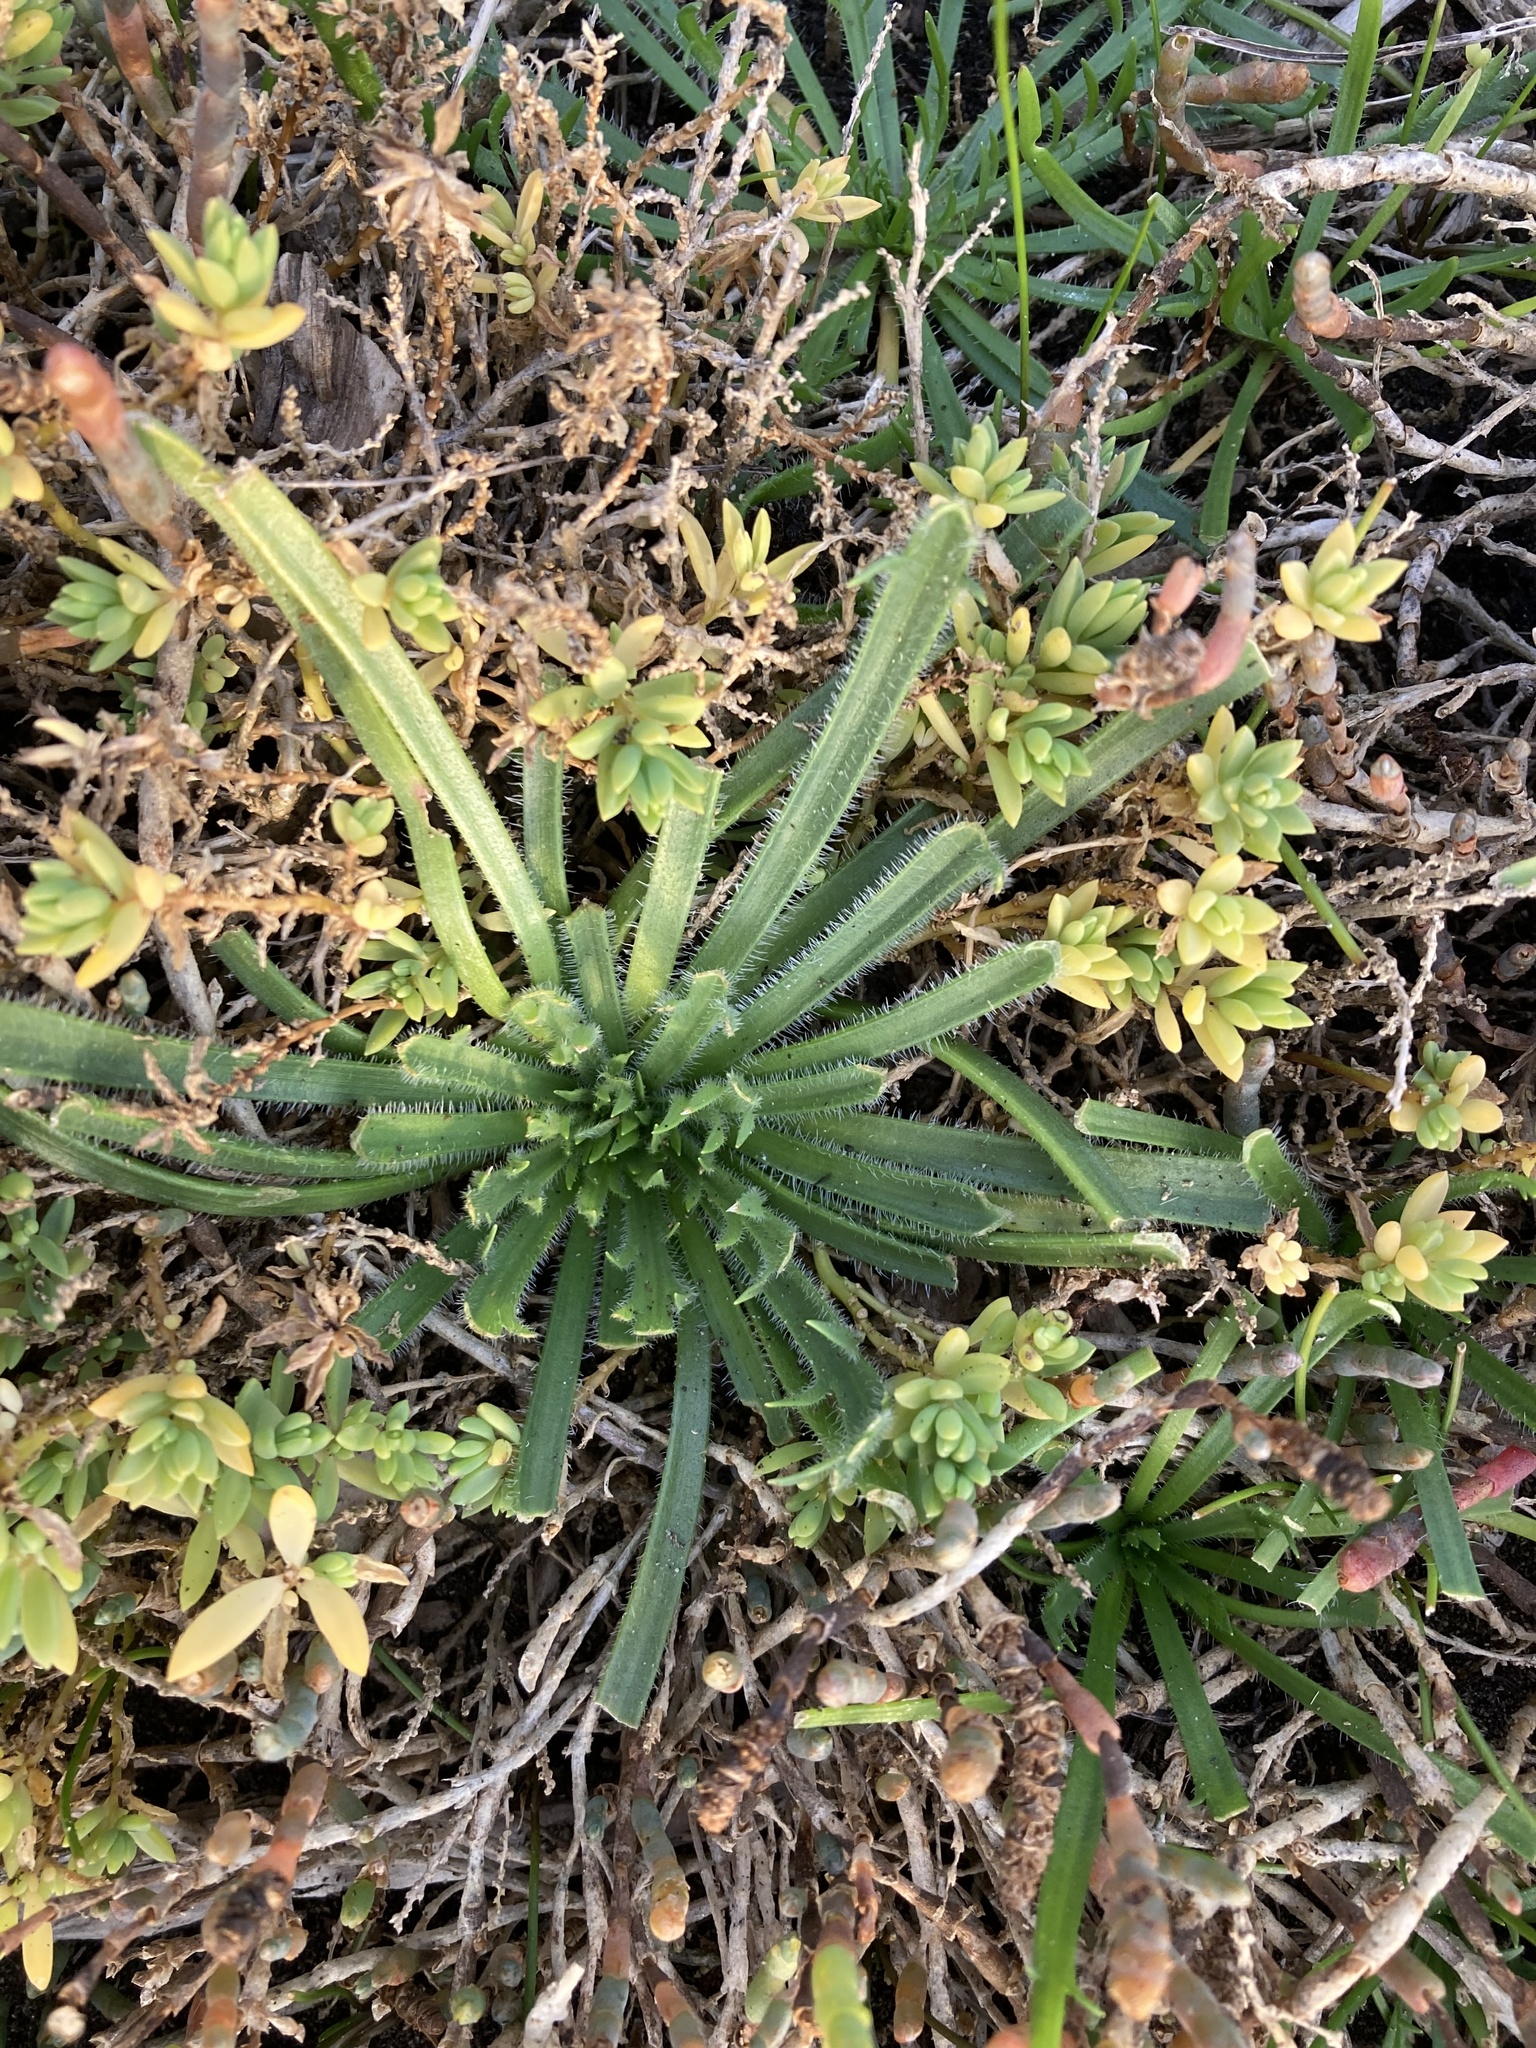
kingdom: Plantae
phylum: Tracheophyta
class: Magnoliopsida
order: Lamiales
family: Plantaginaceae
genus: Plantago
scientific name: Plantago coronopus
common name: Buck's-horn plantain
